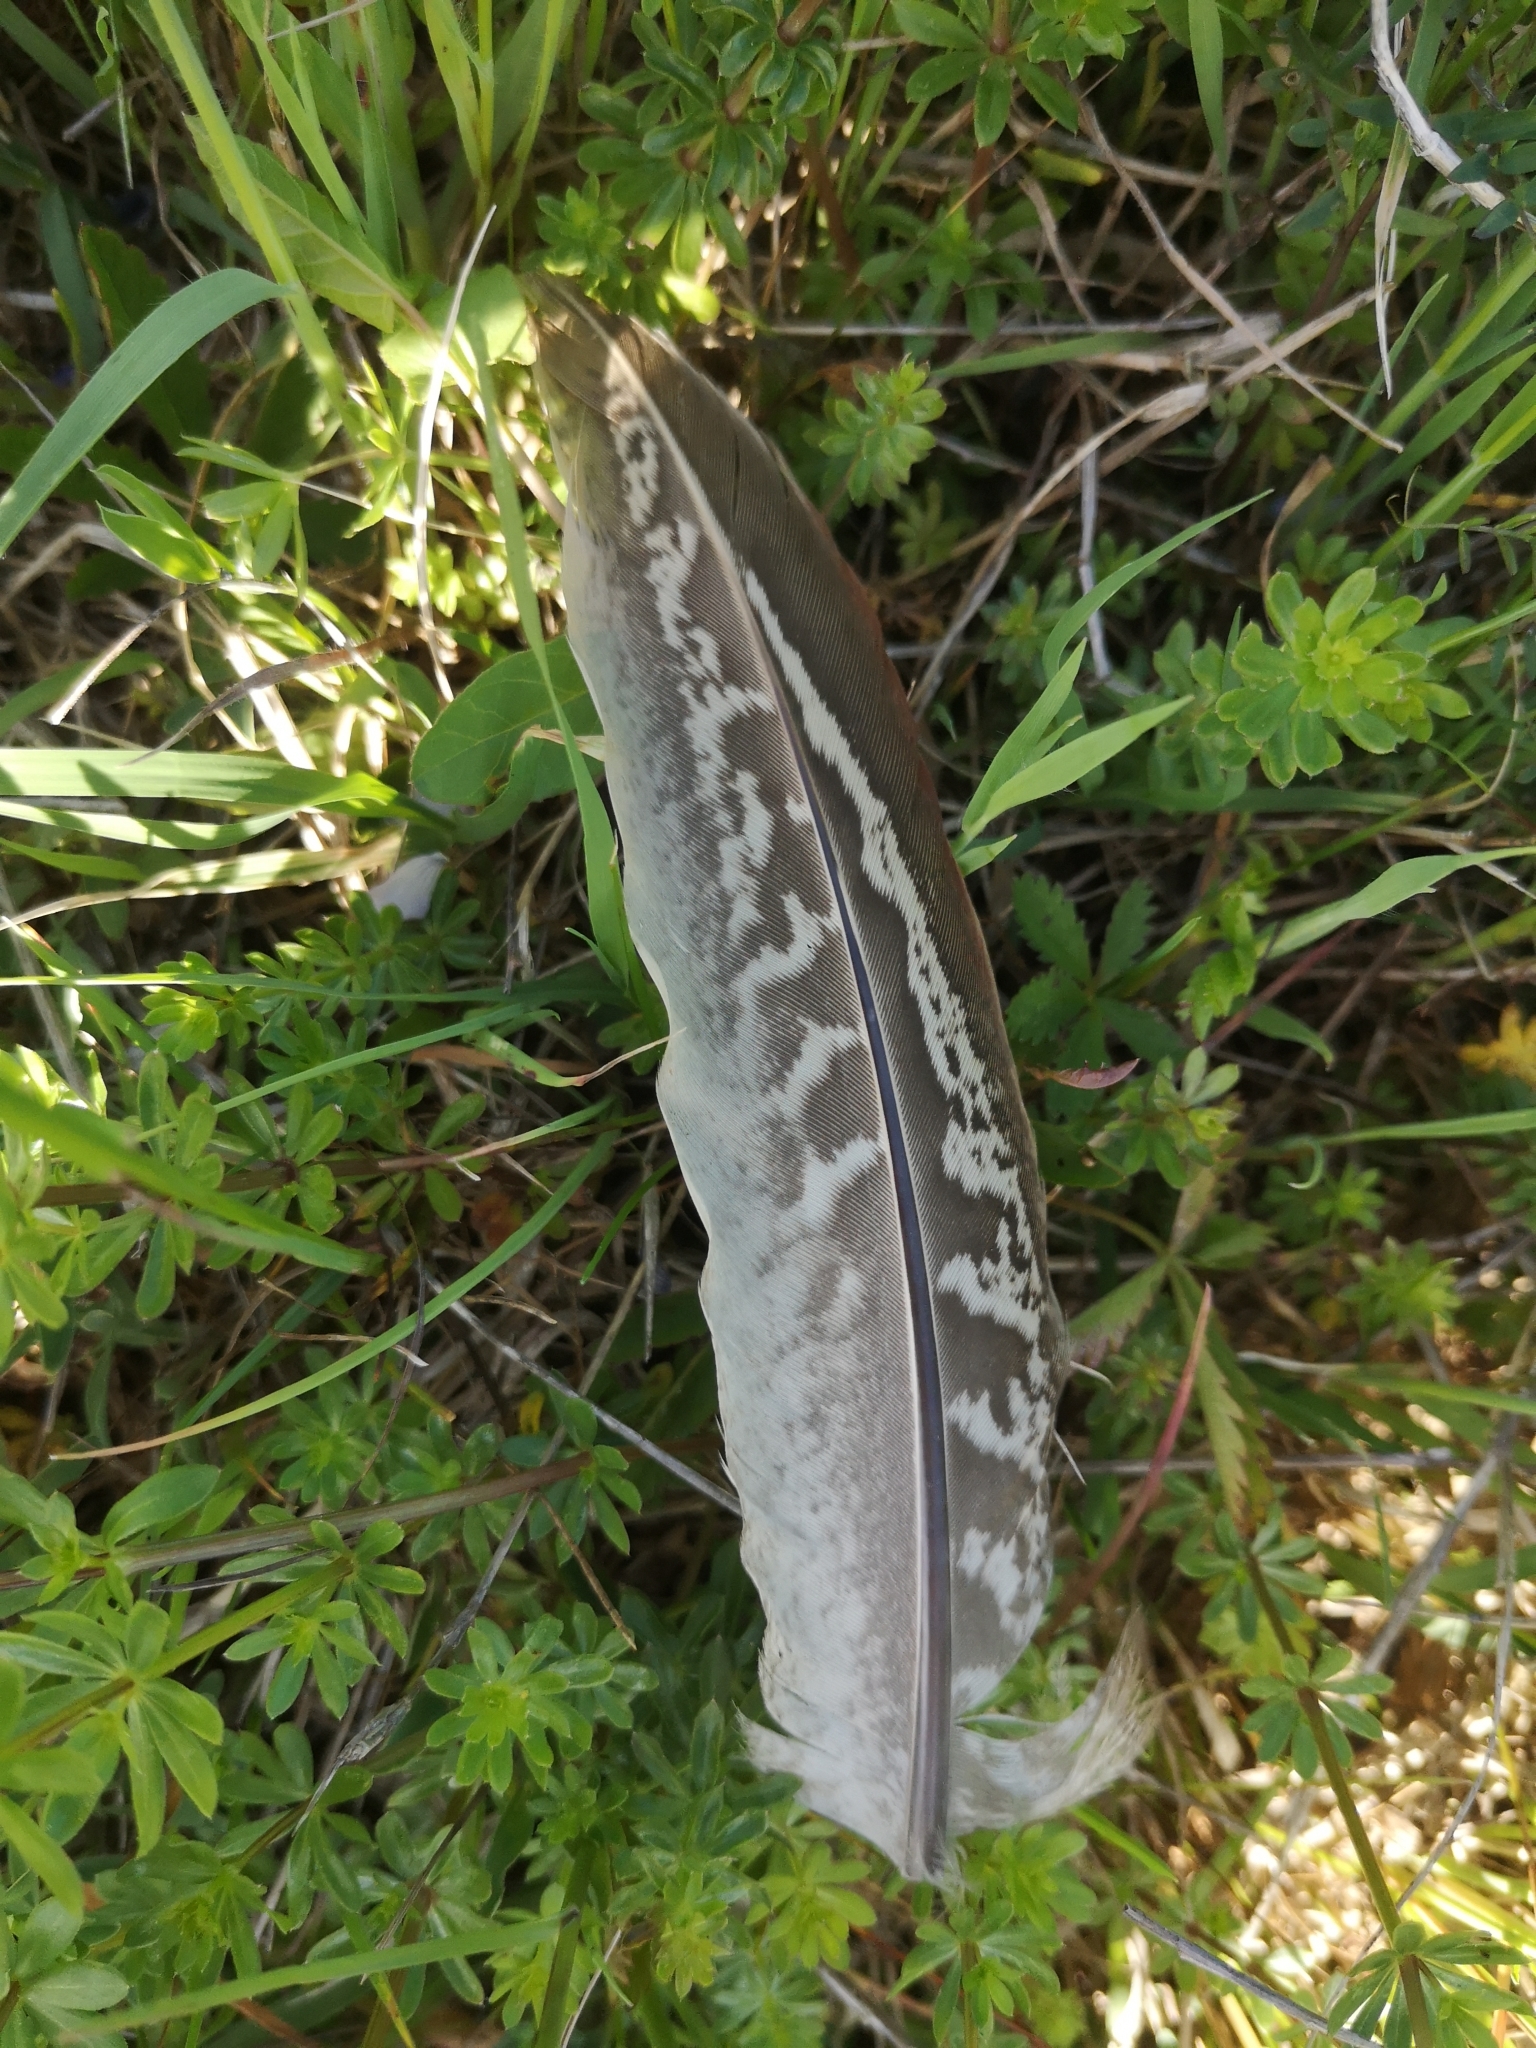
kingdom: Animalia
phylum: Chordata
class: Aves
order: Galliformes
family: Phasianidae
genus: Phasianus
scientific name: Phasianus colchicus
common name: Common pheasant
